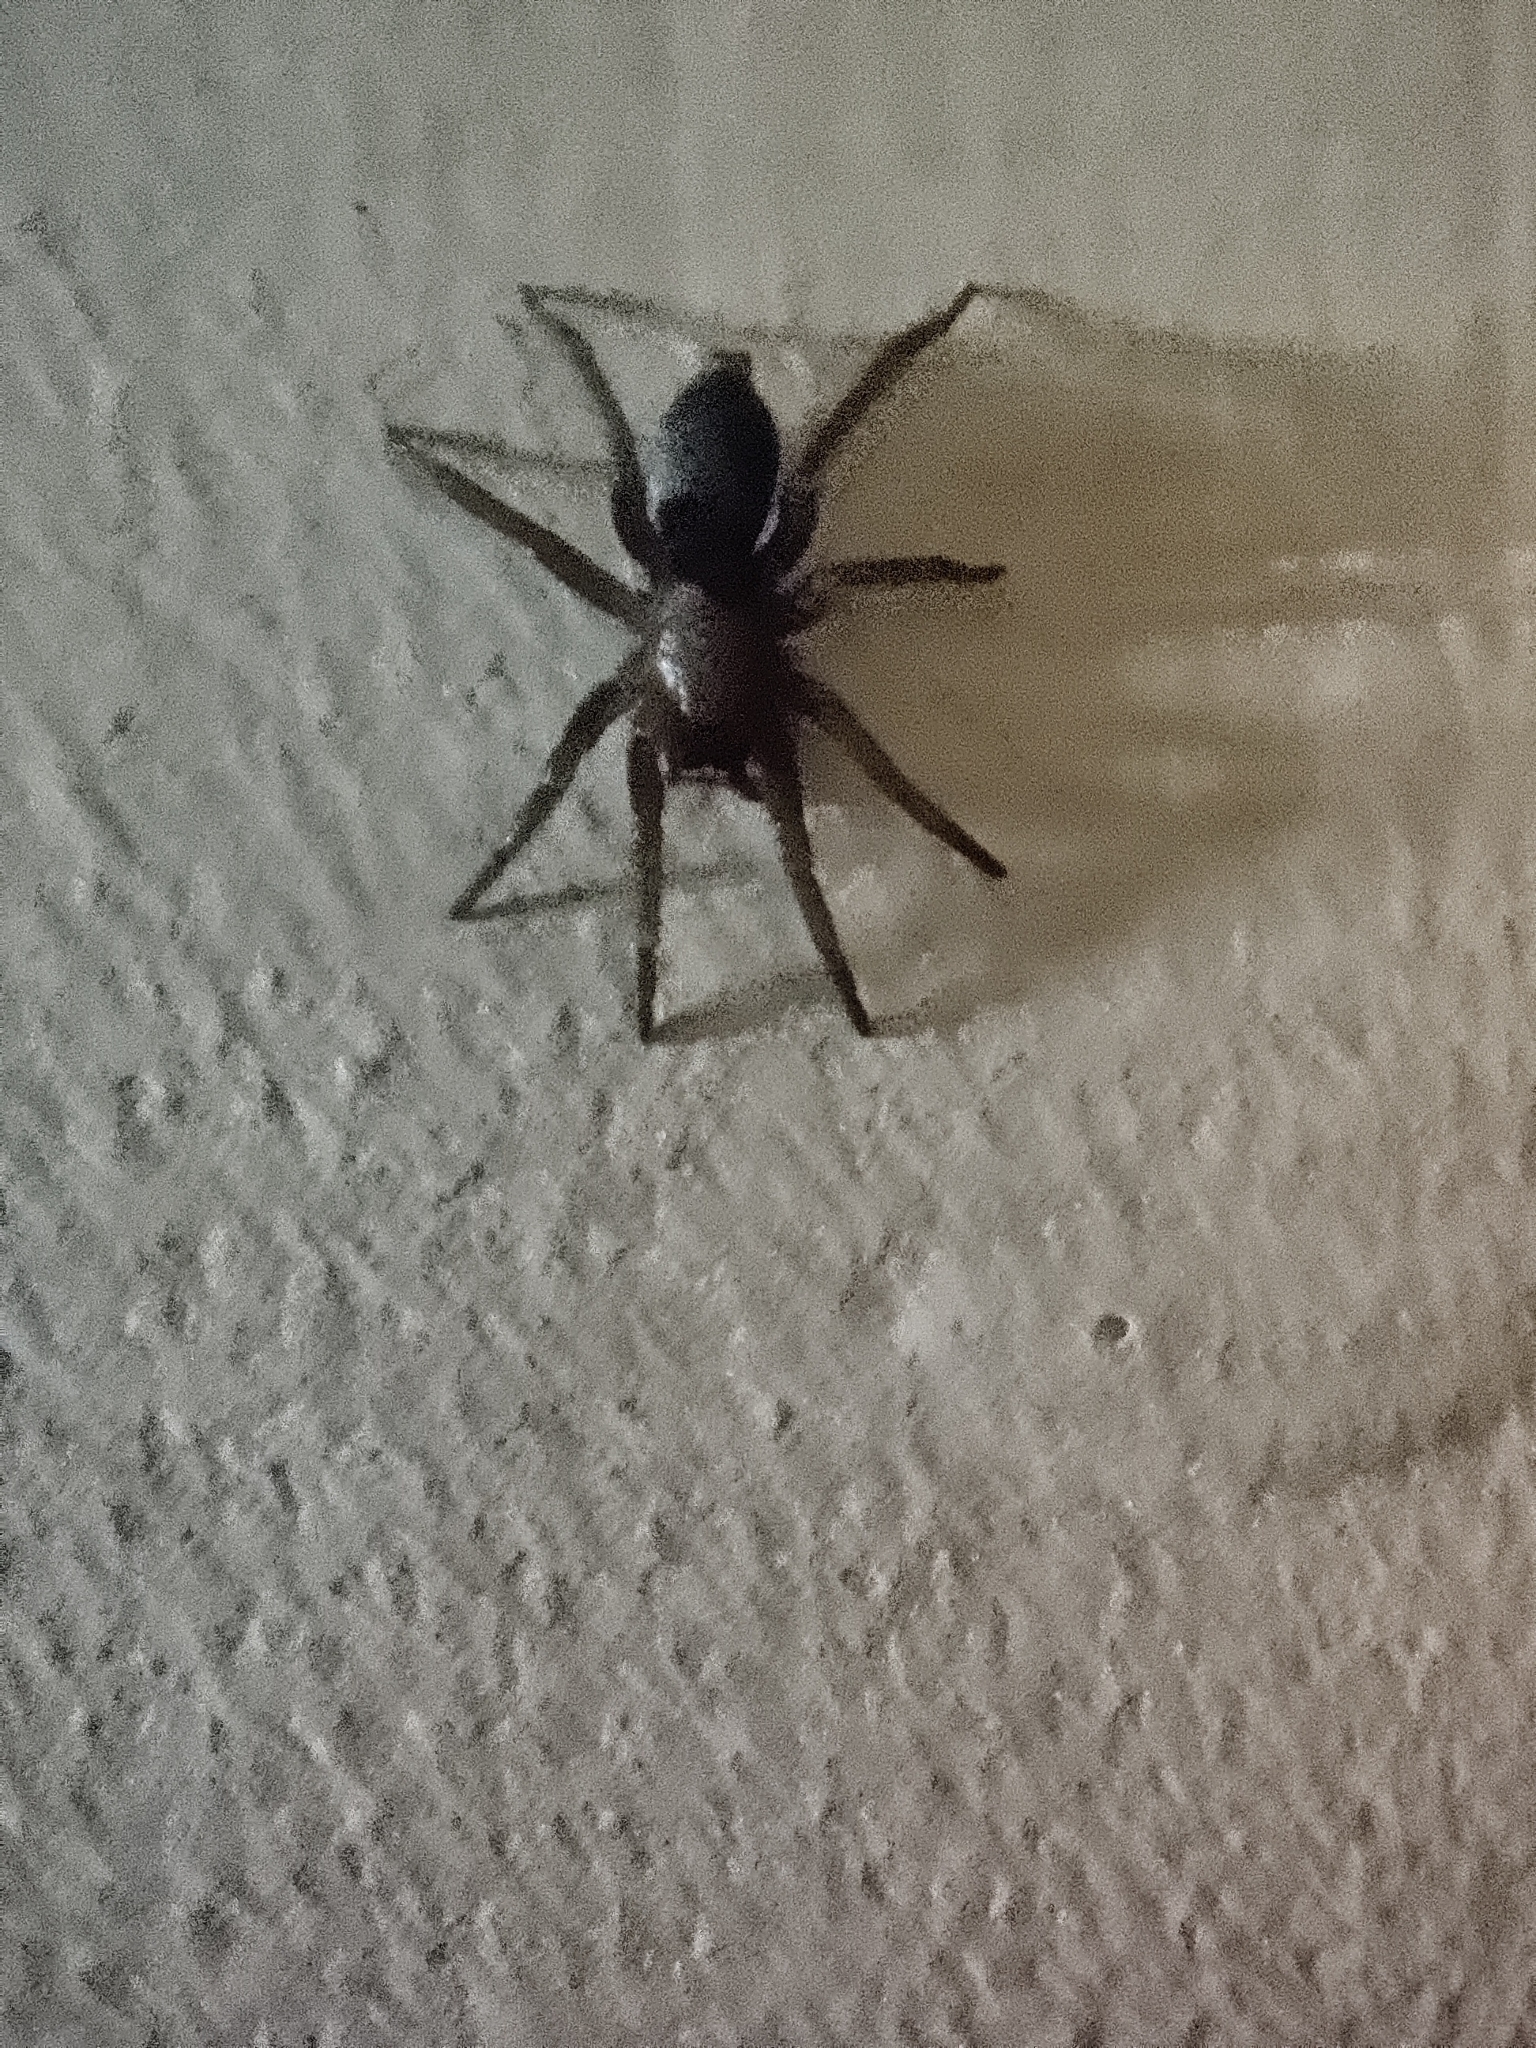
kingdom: Animalia
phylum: Arthropoda
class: Arachnida
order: Araneae
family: Gnaphosidae
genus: Scotophaeus
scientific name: Scotophaeus blackwalli
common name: Mouse spider
